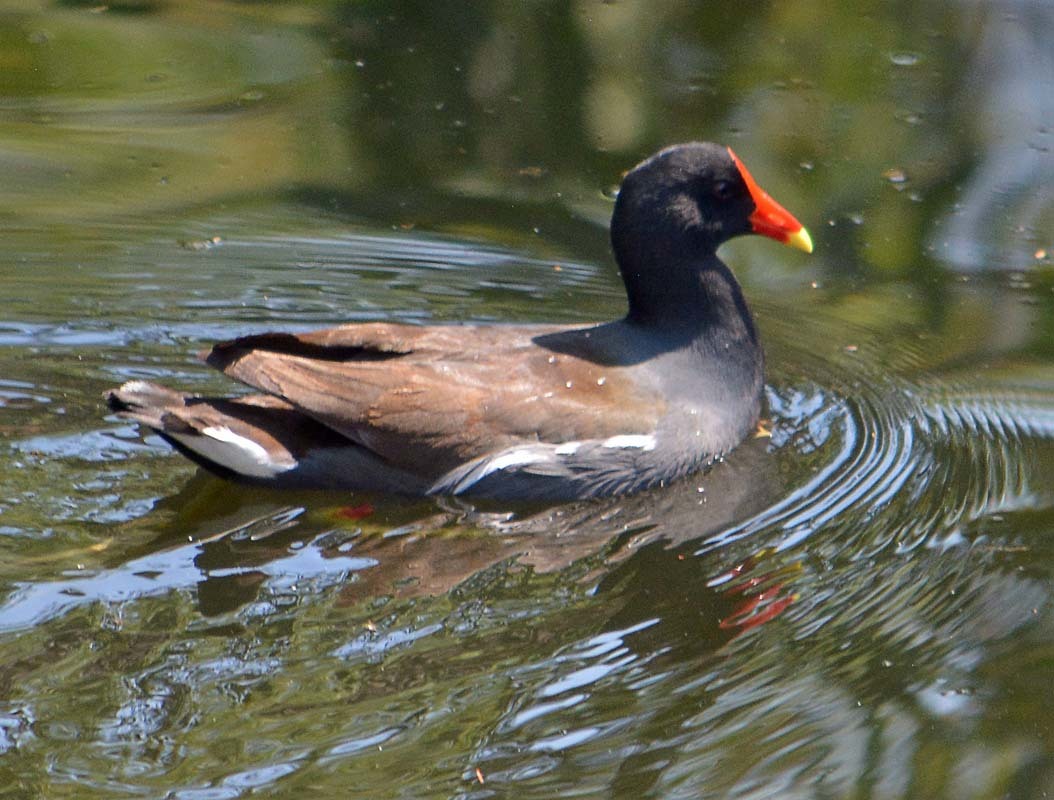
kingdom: Animalia
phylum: Chordata
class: Aves
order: Gruiformes
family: Rallidae
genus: Gallinula
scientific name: Gallinula chloropus
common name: Common moorhen
